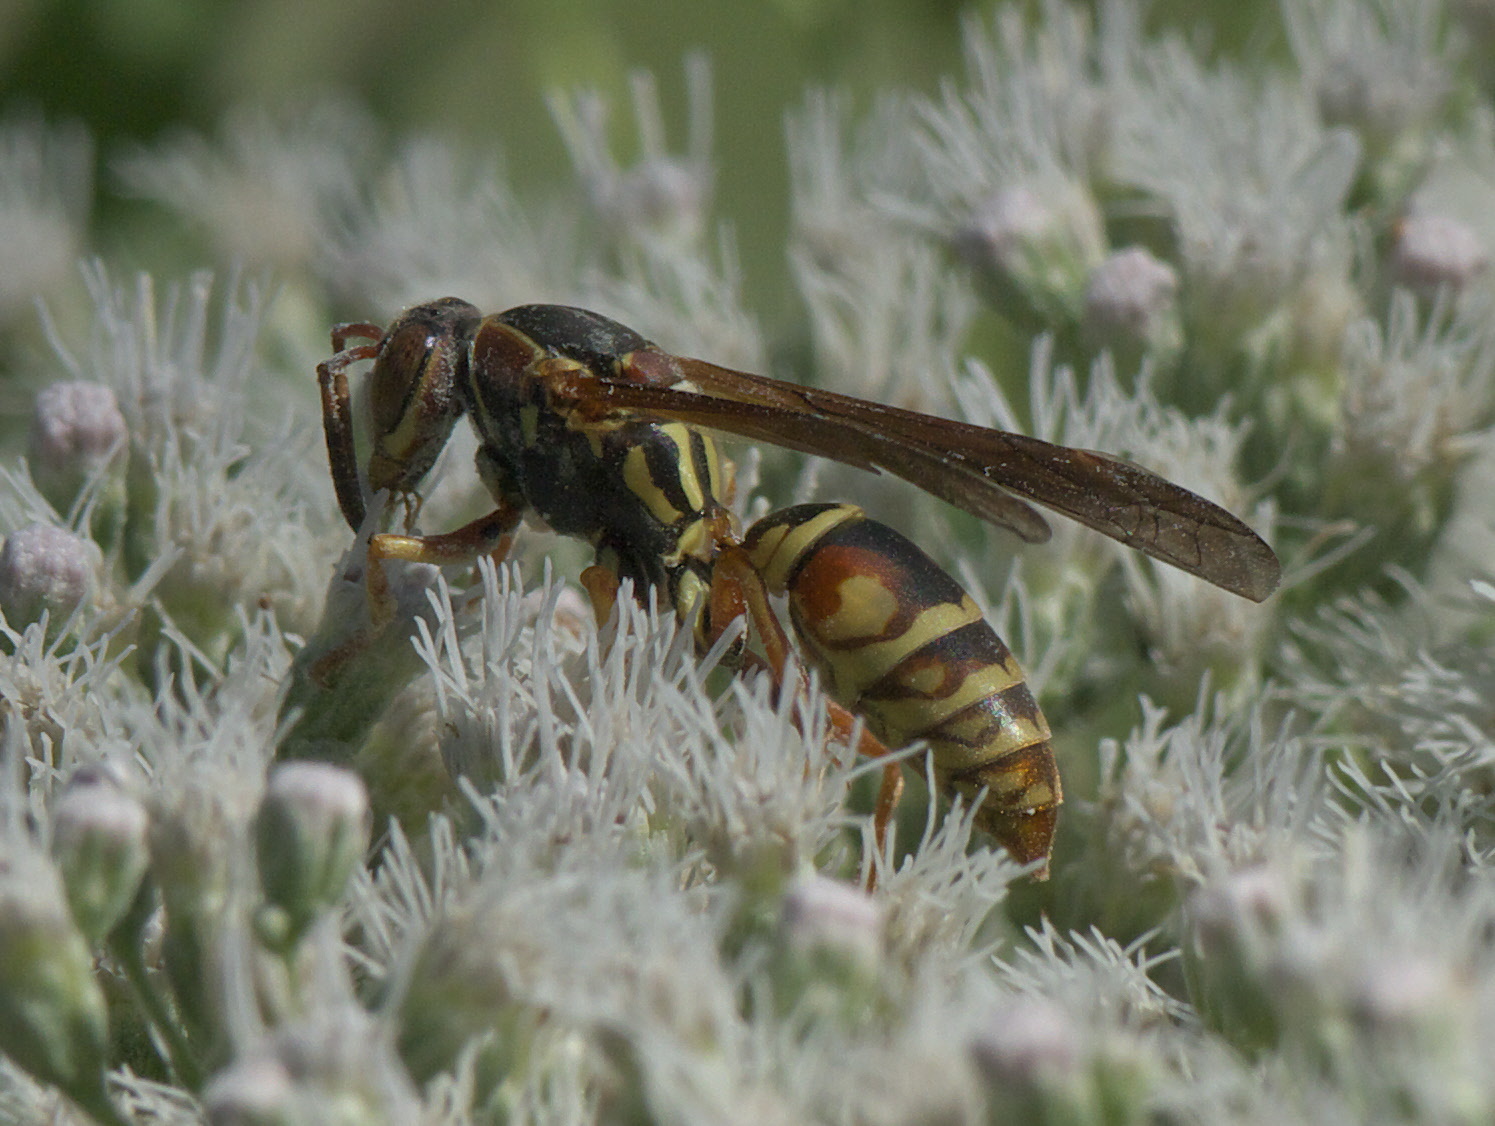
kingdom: Animalia
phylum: Arthropoda
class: Insecta
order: Hymenoptera
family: Eumenidae
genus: Polistes
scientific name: Polistes fuscatus
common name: Dark paper wasp
